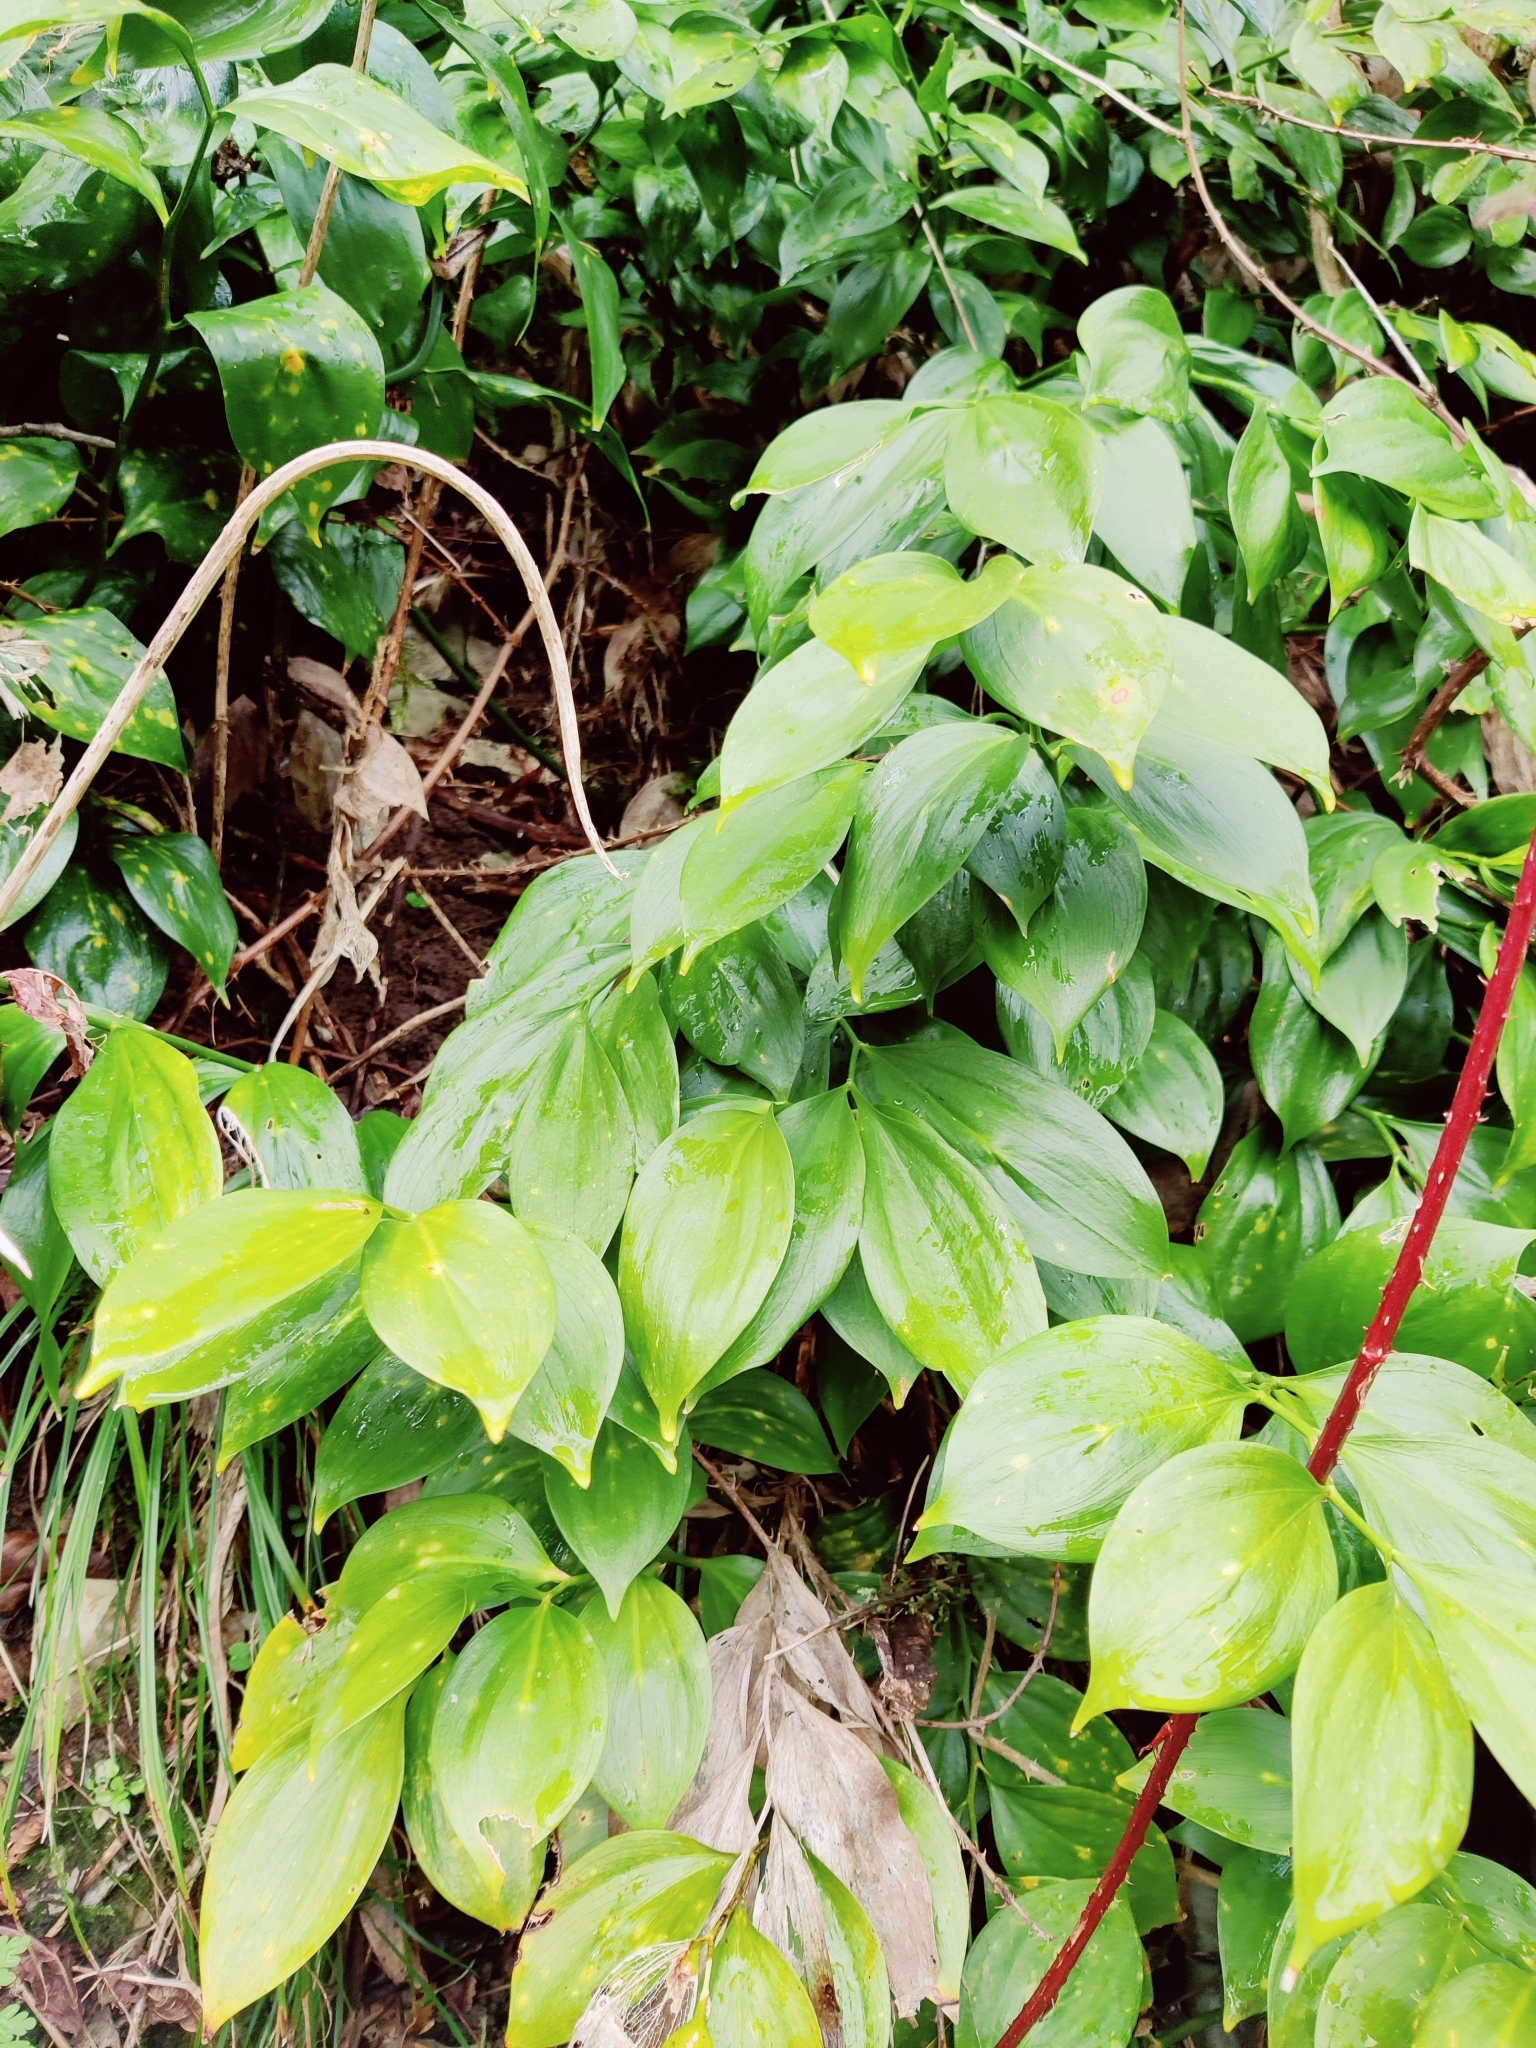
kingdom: Plantae
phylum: Tracheophyta
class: Liliopsida
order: Asparagales
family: Asparagaceae
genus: Ruscus
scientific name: Ruscus colchicus
